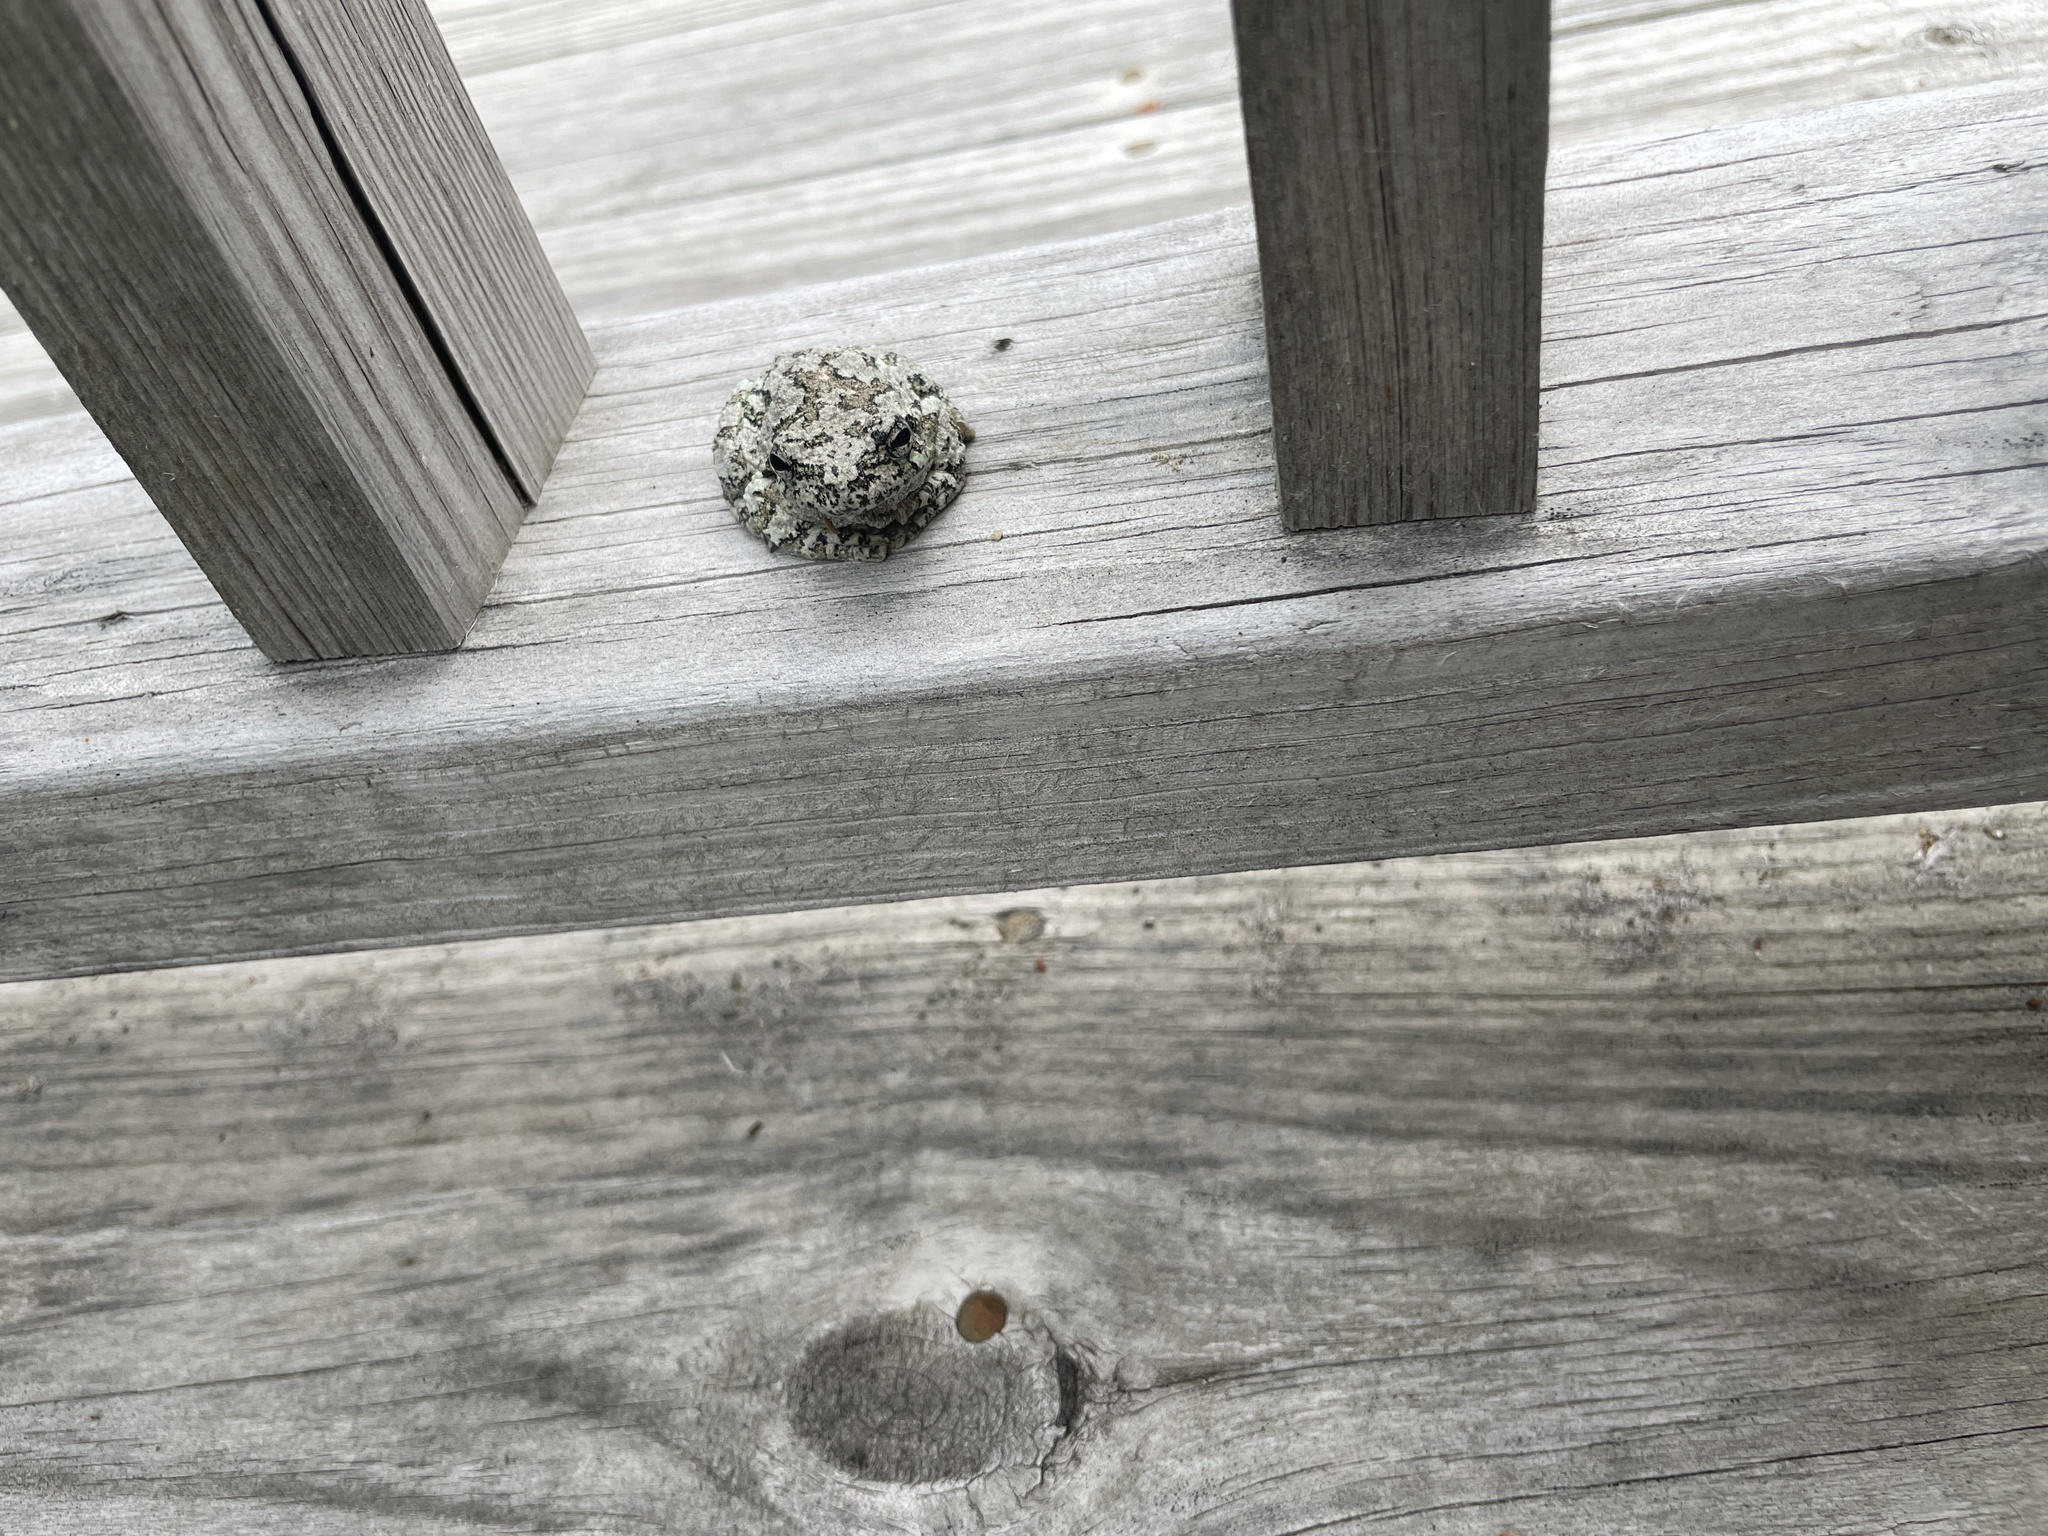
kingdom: Animalia
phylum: Chordata
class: Amphibia
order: Anura
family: Hylidae
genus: Dryophytes
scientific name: Dryophytes versicolor
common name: Gray treefrog
